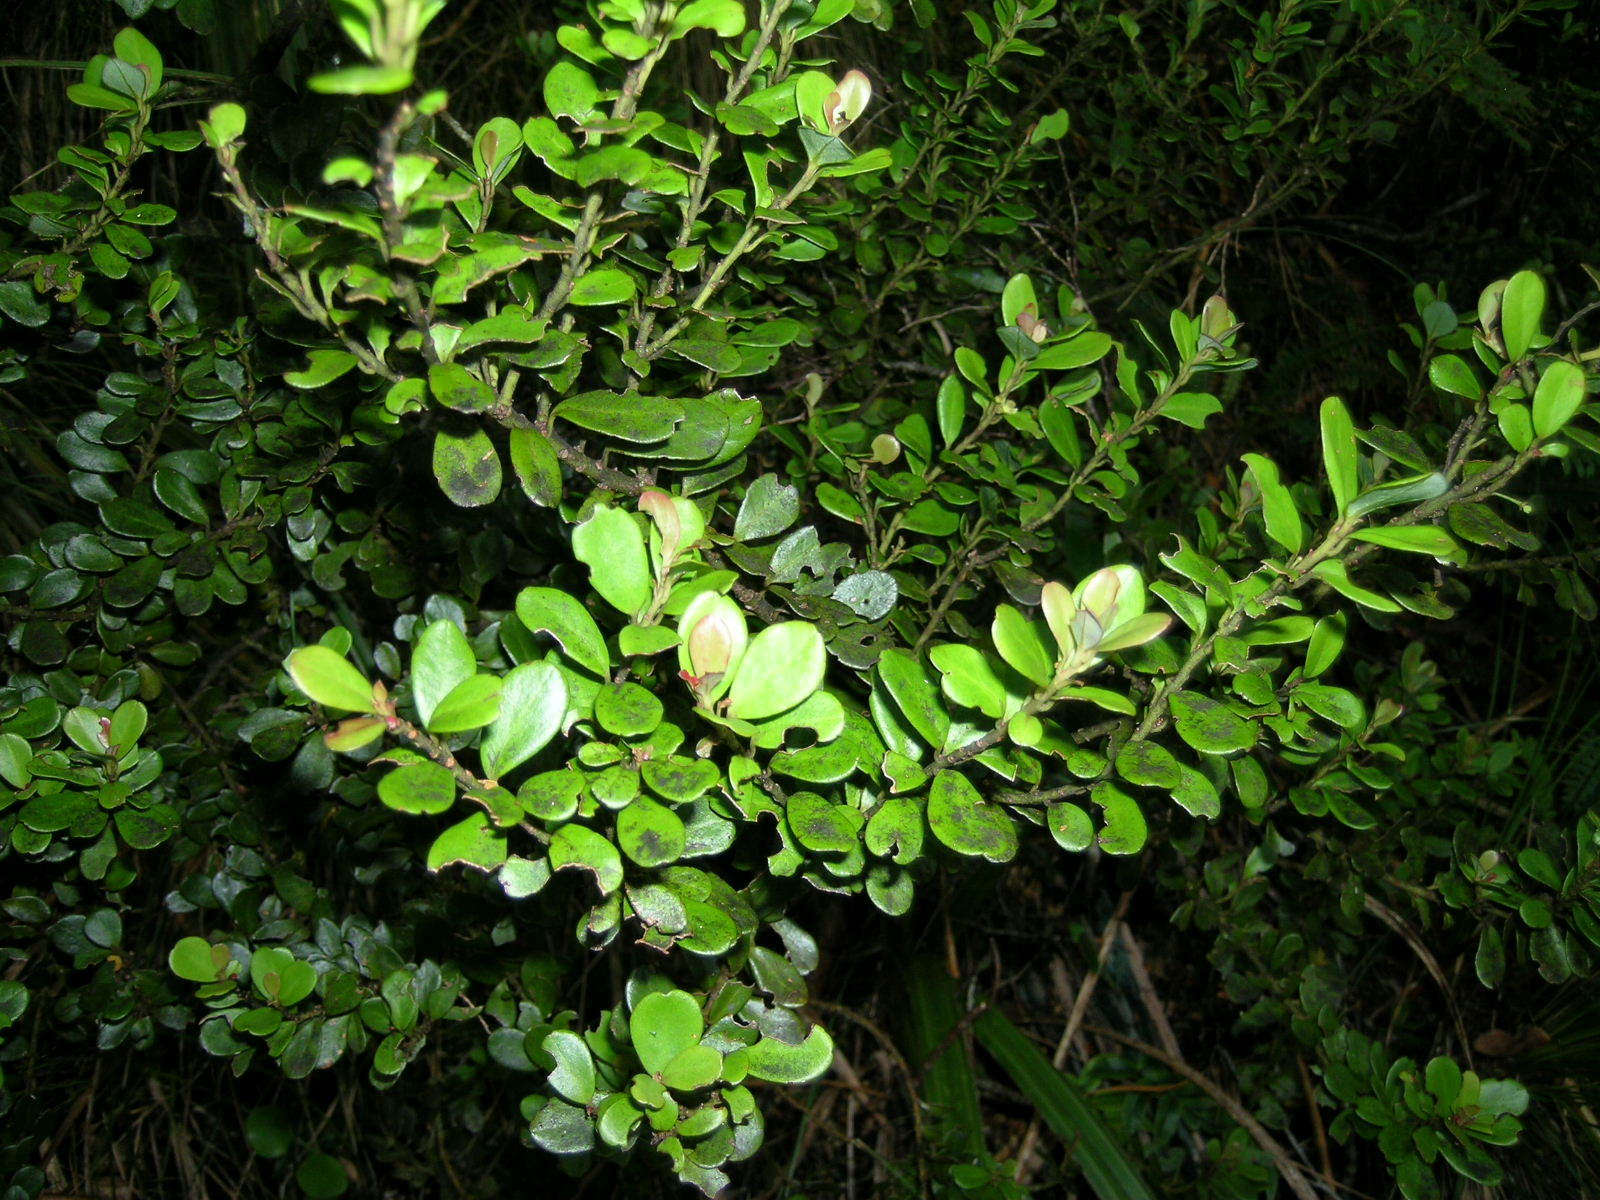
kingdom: Plantae
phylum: Tracheophyta
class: Magnoliopsida
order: Canellales
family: Winteraceae
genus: Pseudowintera
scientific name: Pseudowintera traversii
